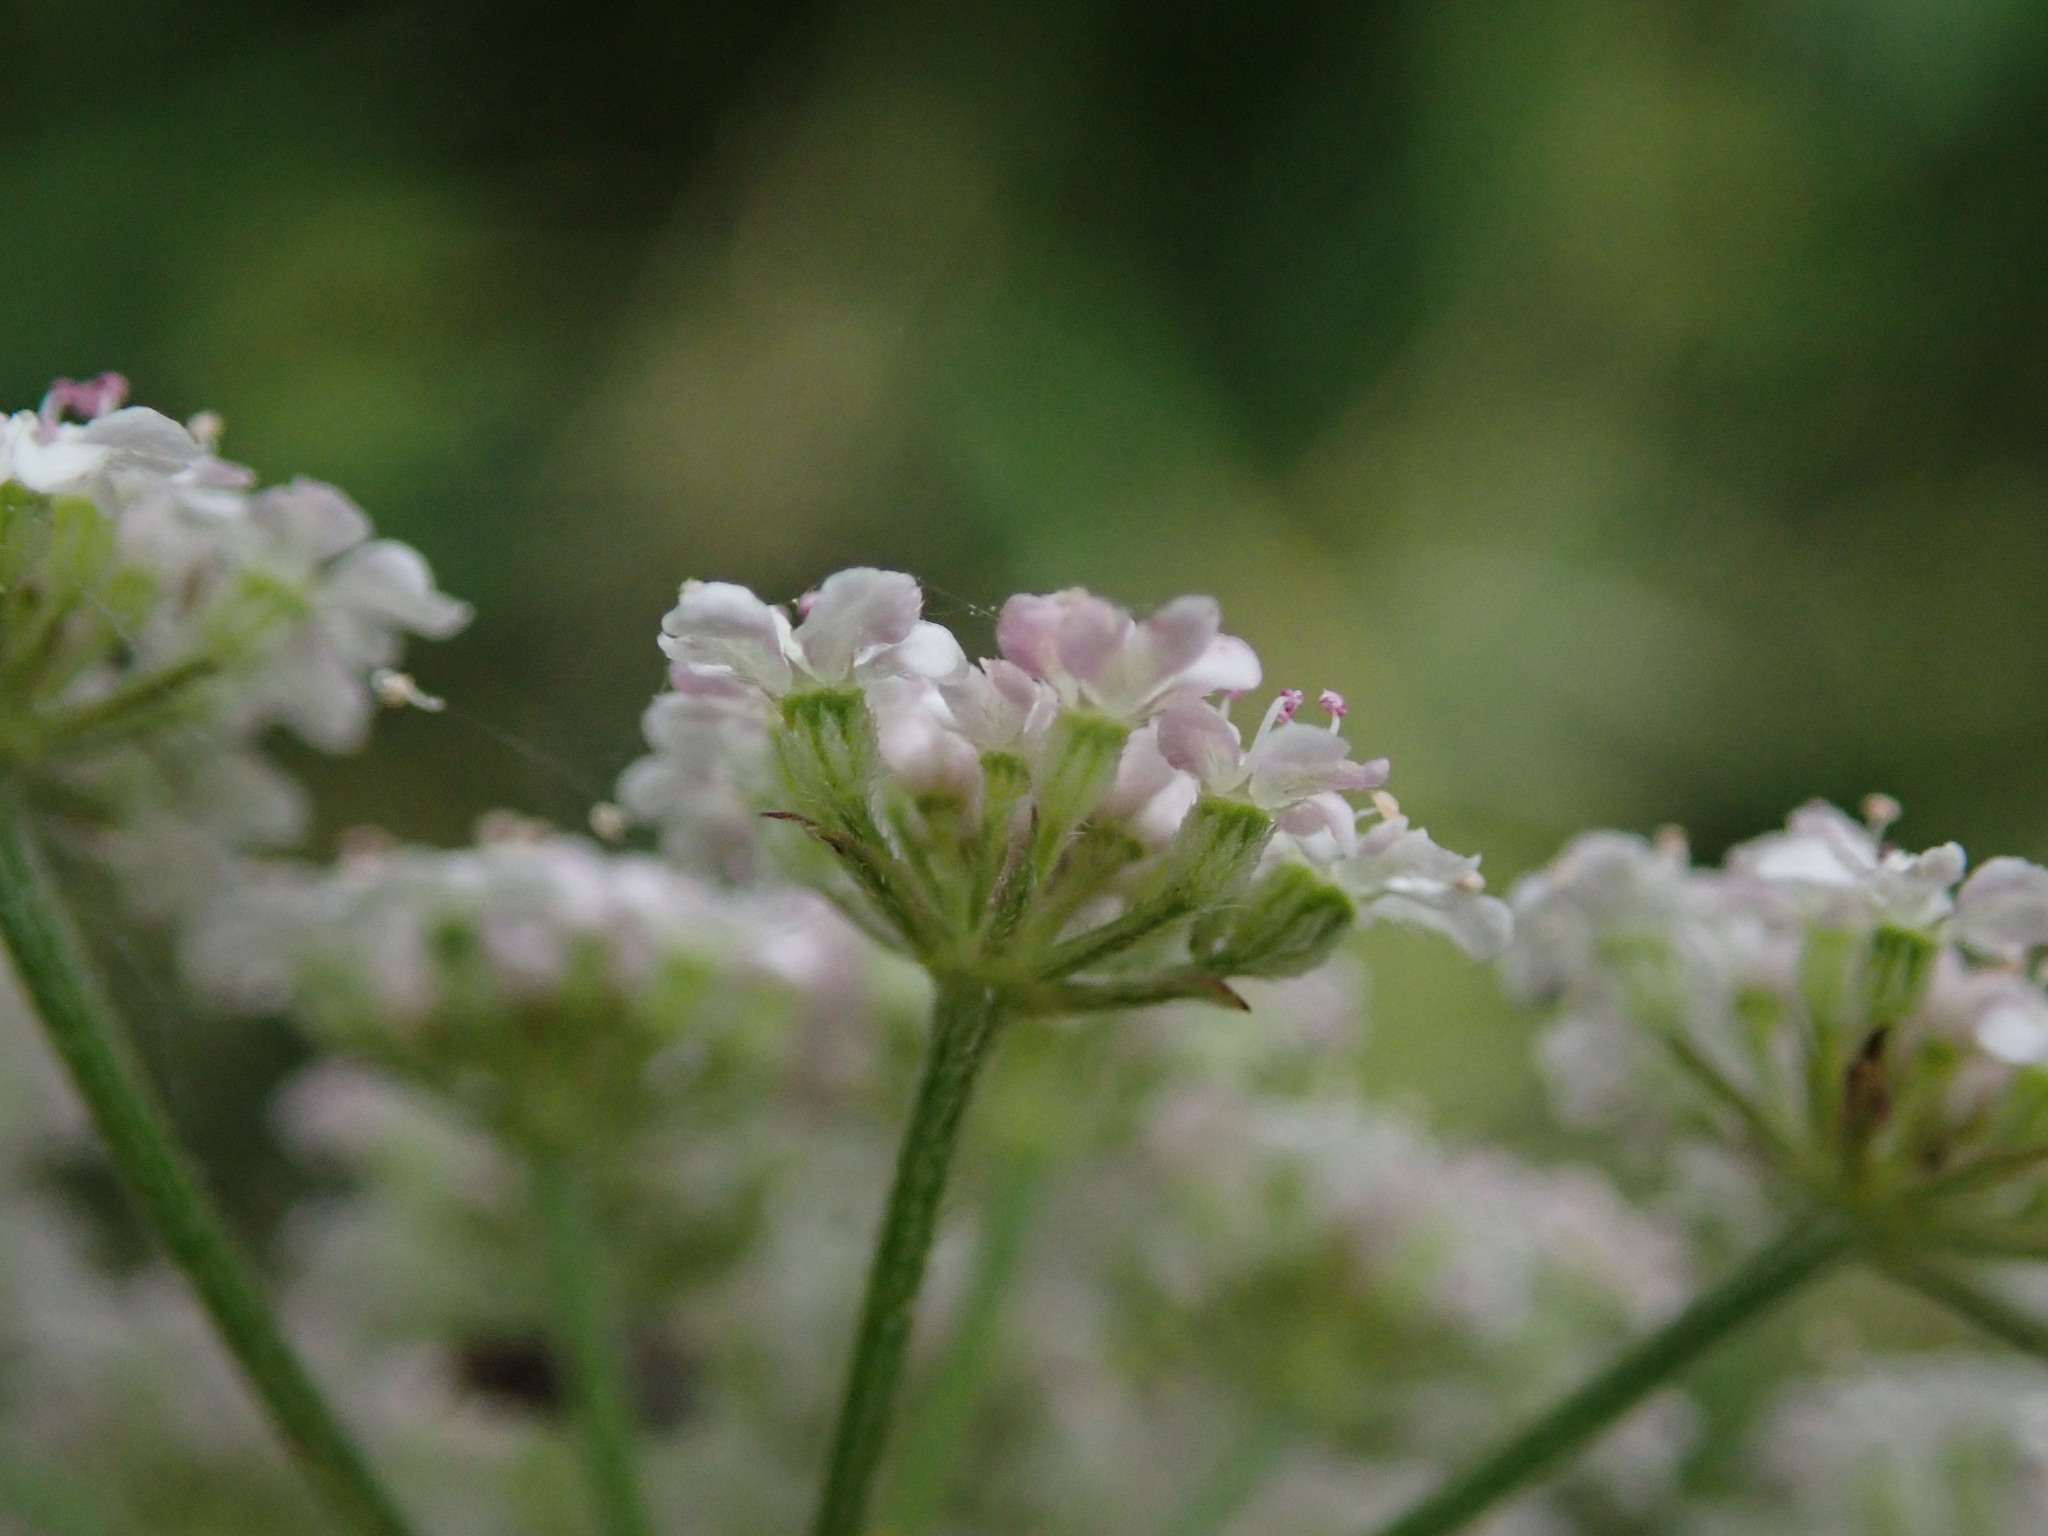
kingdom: Plantae
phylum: Tracheophyta
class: Magnoliopsida
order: Apiales
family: Apiaceae
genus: Torilis
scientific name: Torilis japonica
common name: Upright hedge-parsley
